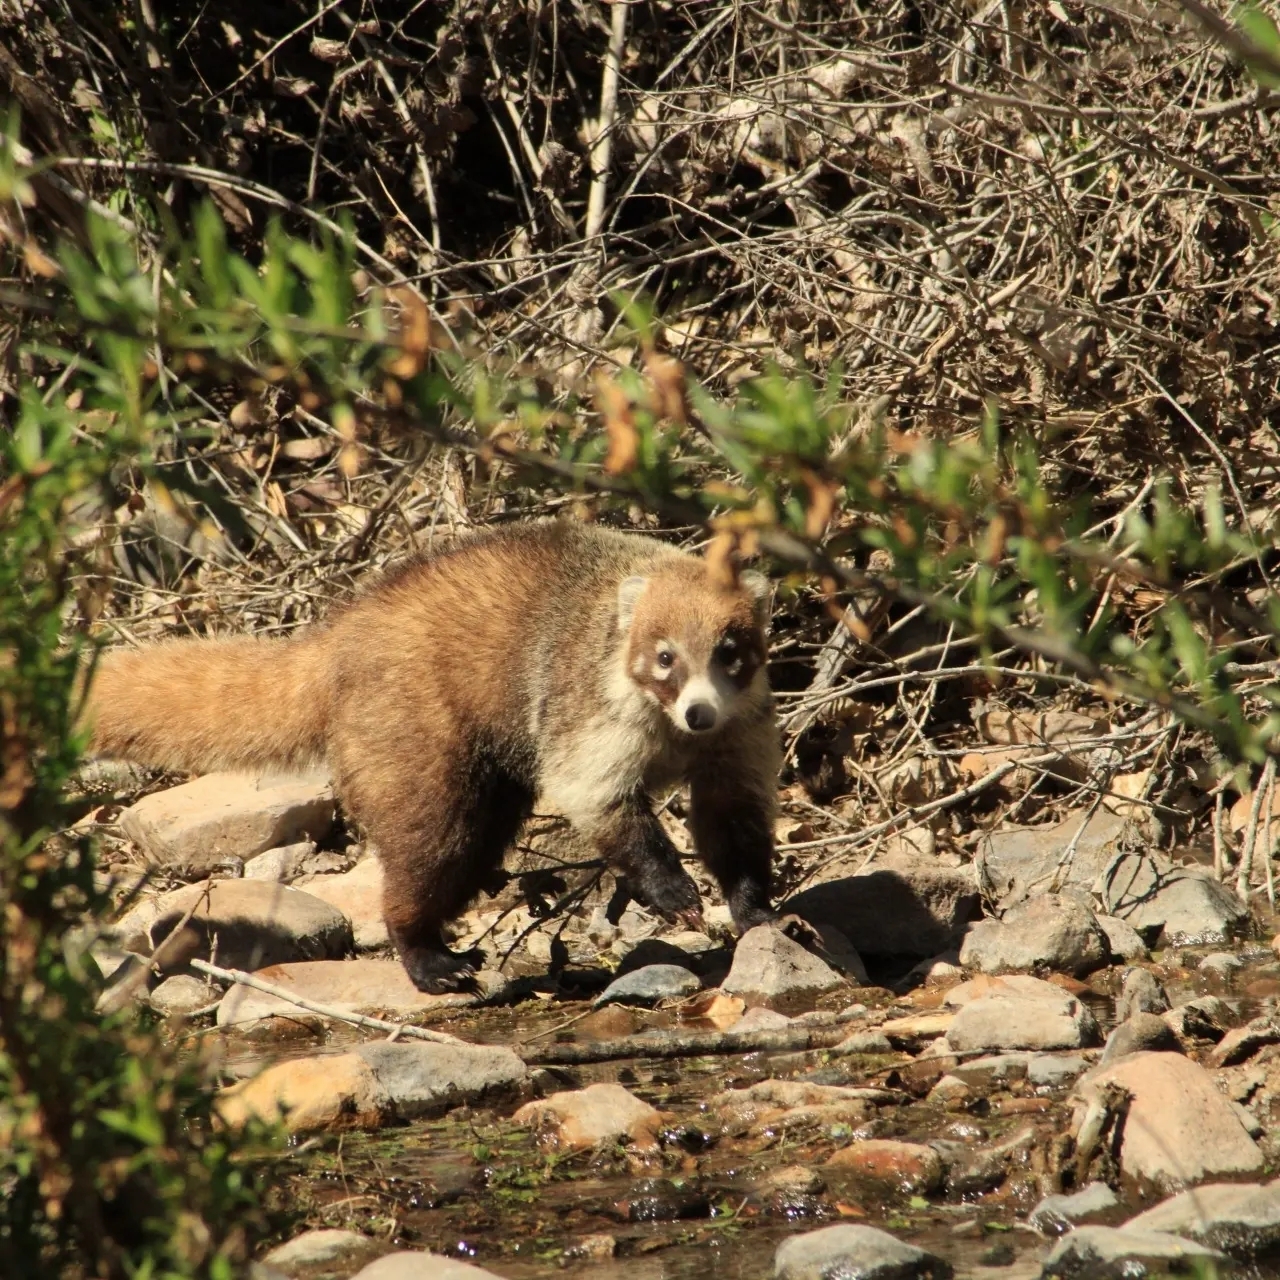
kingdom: Animalia
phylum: Chordata
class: Mammalia
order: Carnivora
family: Procyonidae
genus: Nasua
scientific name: Nasua narica
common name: White-nosed coati
